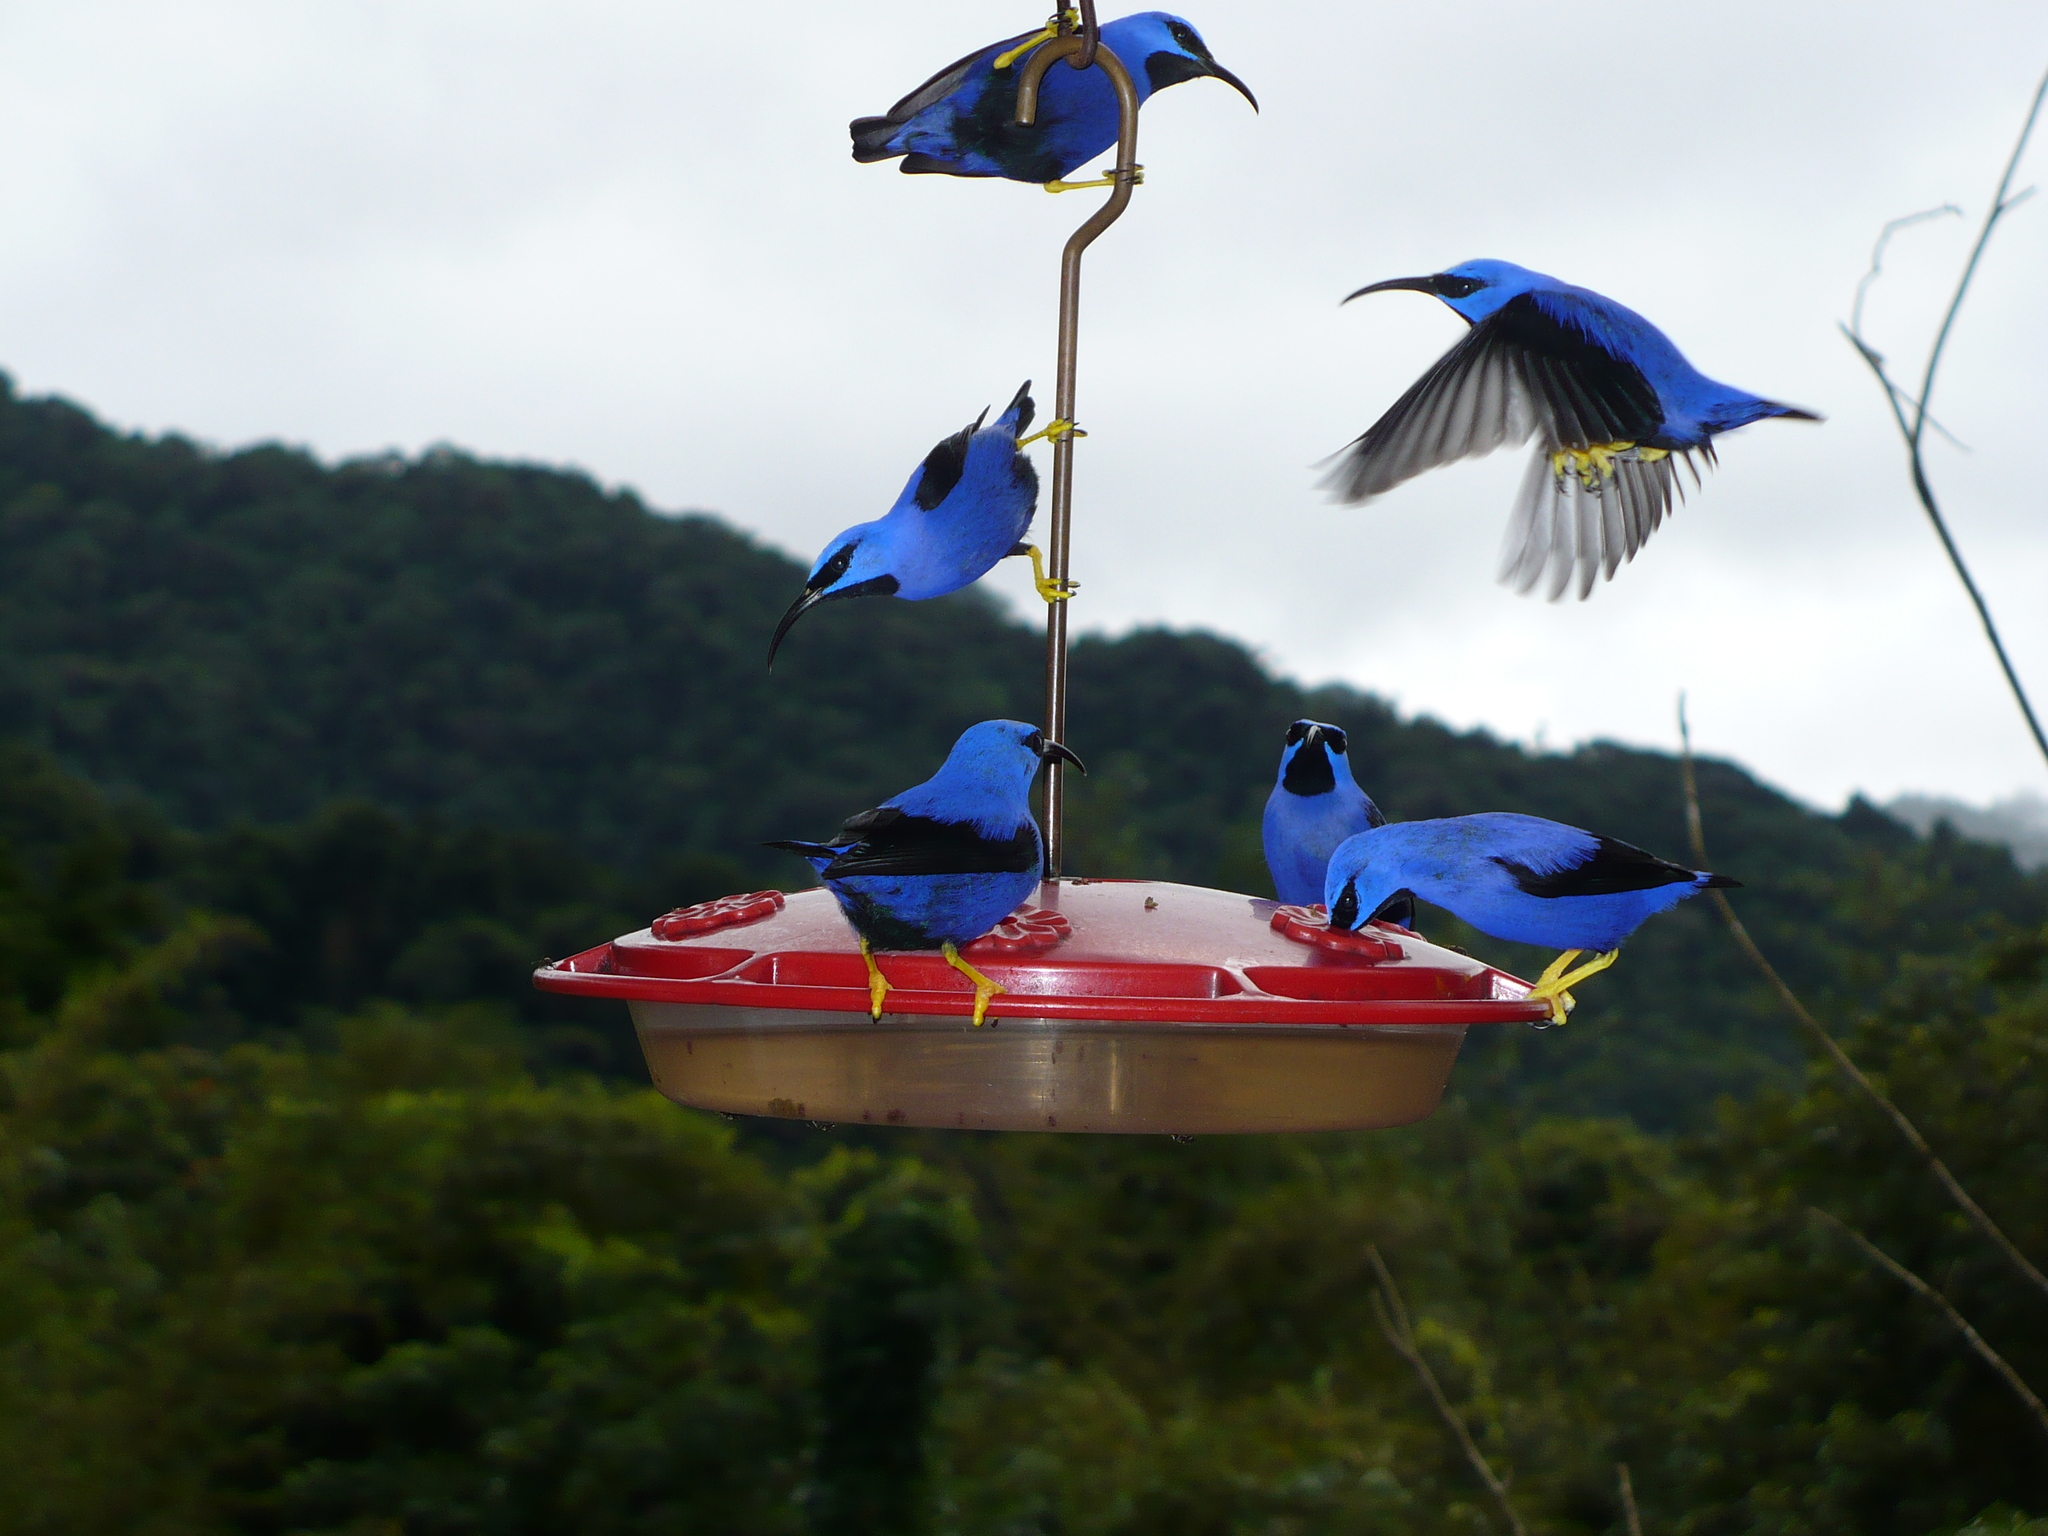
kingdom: Animalia
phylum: Chordata
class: Aves
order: Passeriformes
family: Thraupidae
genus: Cyanerpes
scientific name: Cyanerpes caeruleus
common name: Purple honeycreeper
